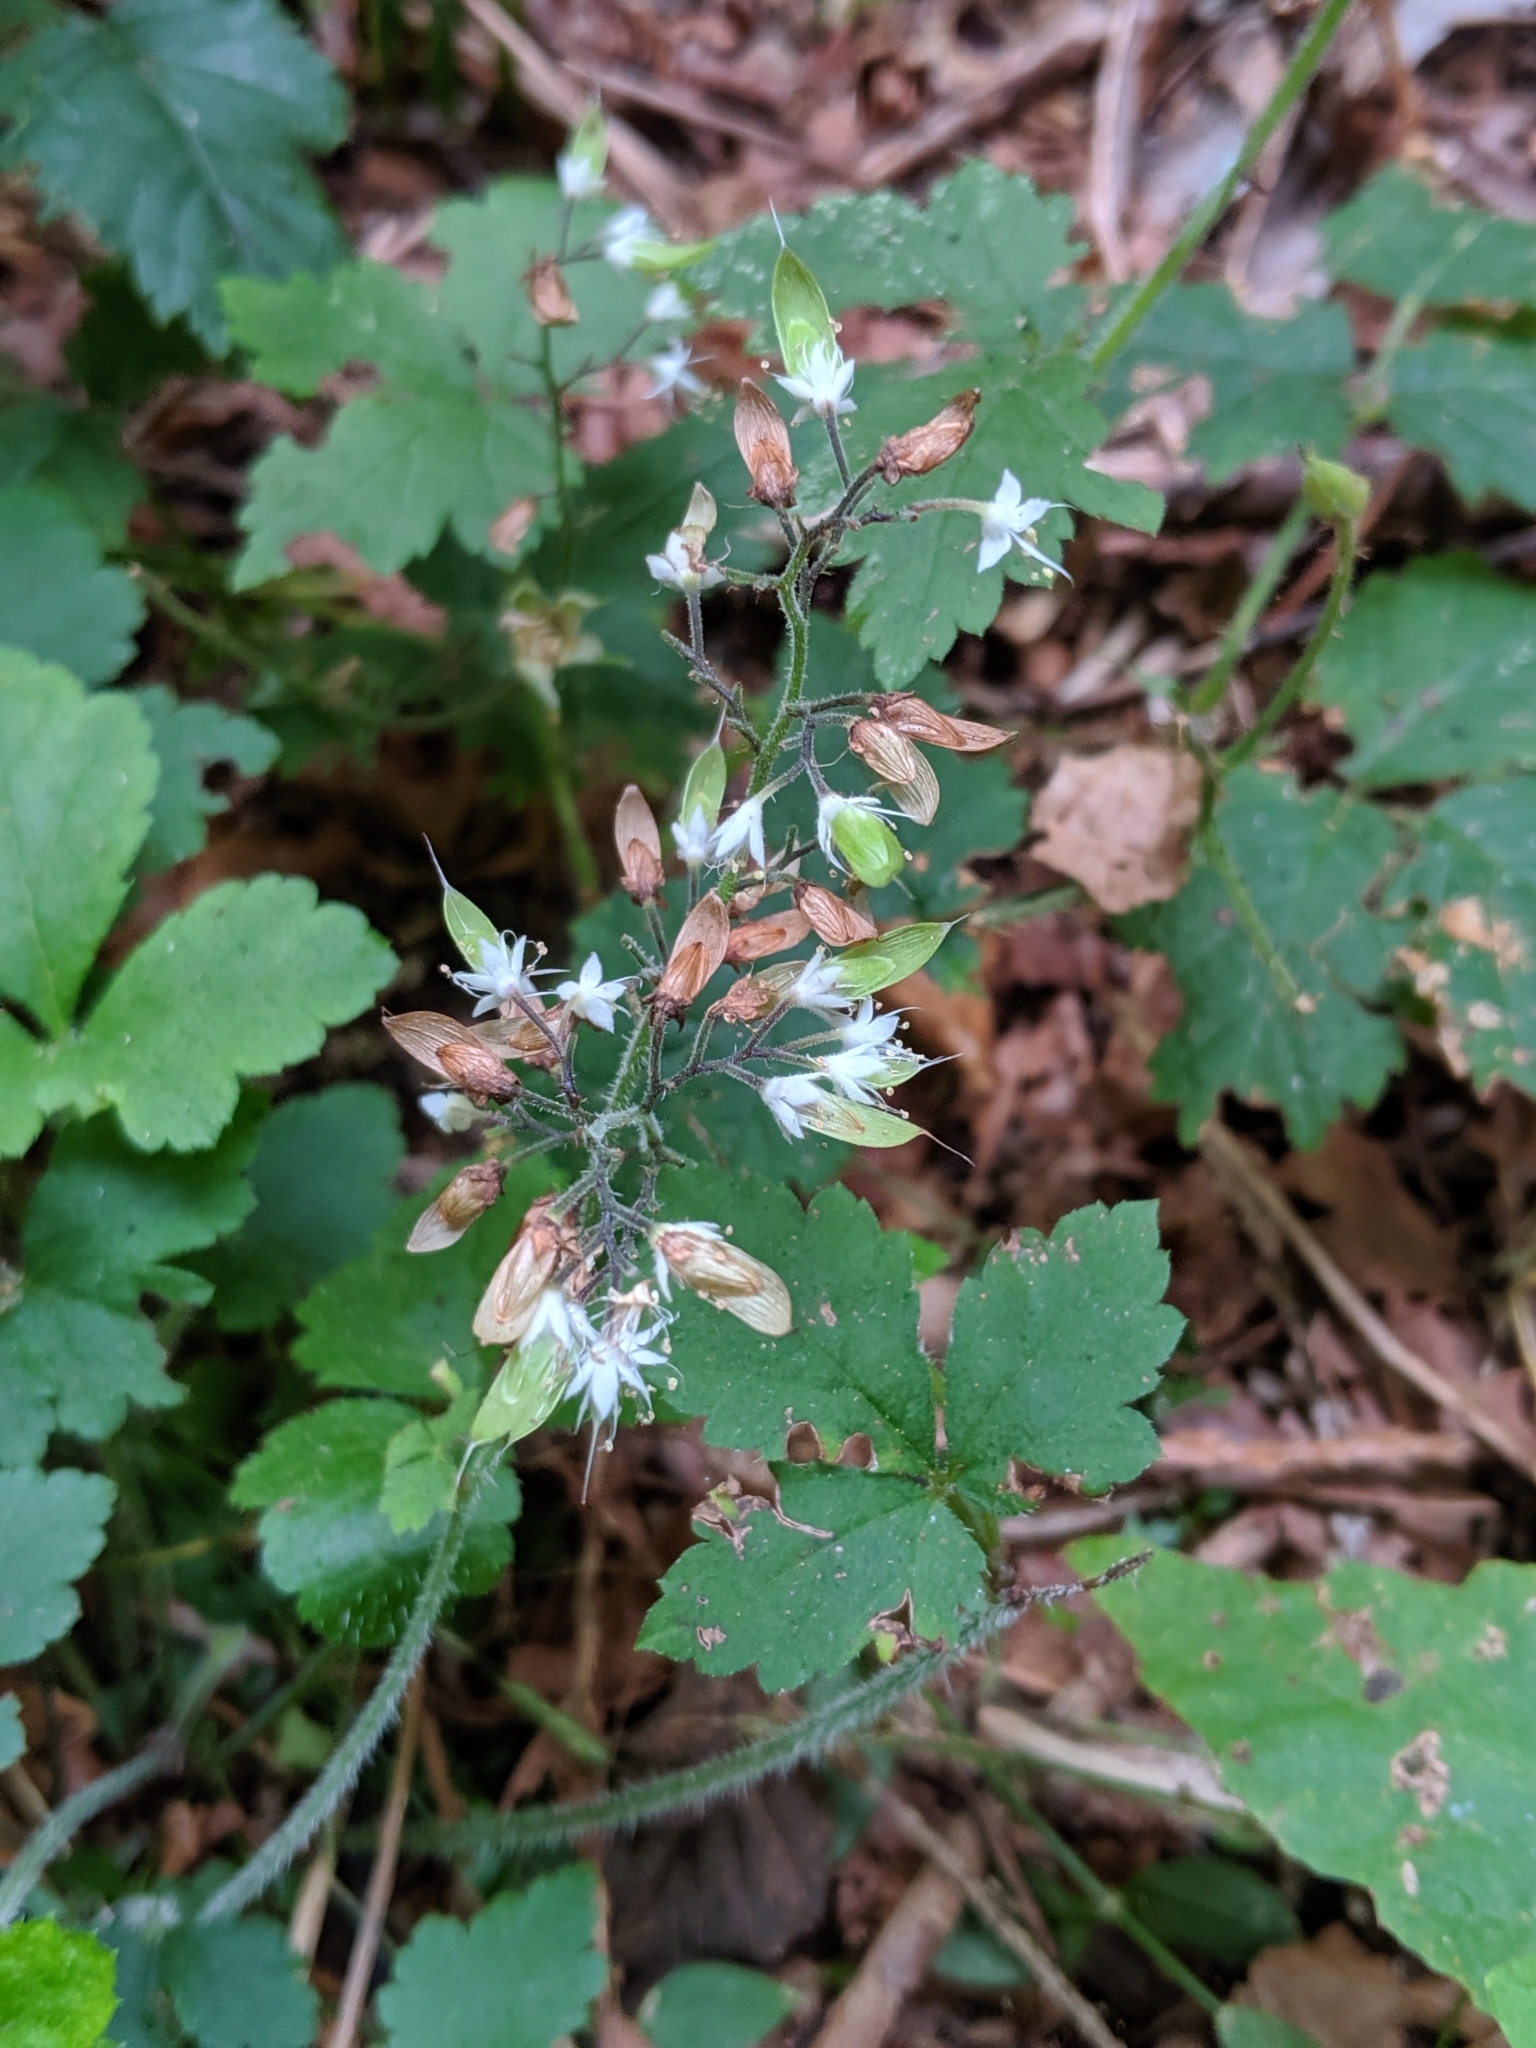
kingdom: Plantae
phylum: Tracheophyta
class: Magnoliopsida
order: Saxifragales
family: Saxifragaceae
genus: Tiarella
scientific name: Tiarella trifoliata
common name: Sugar-scoop
